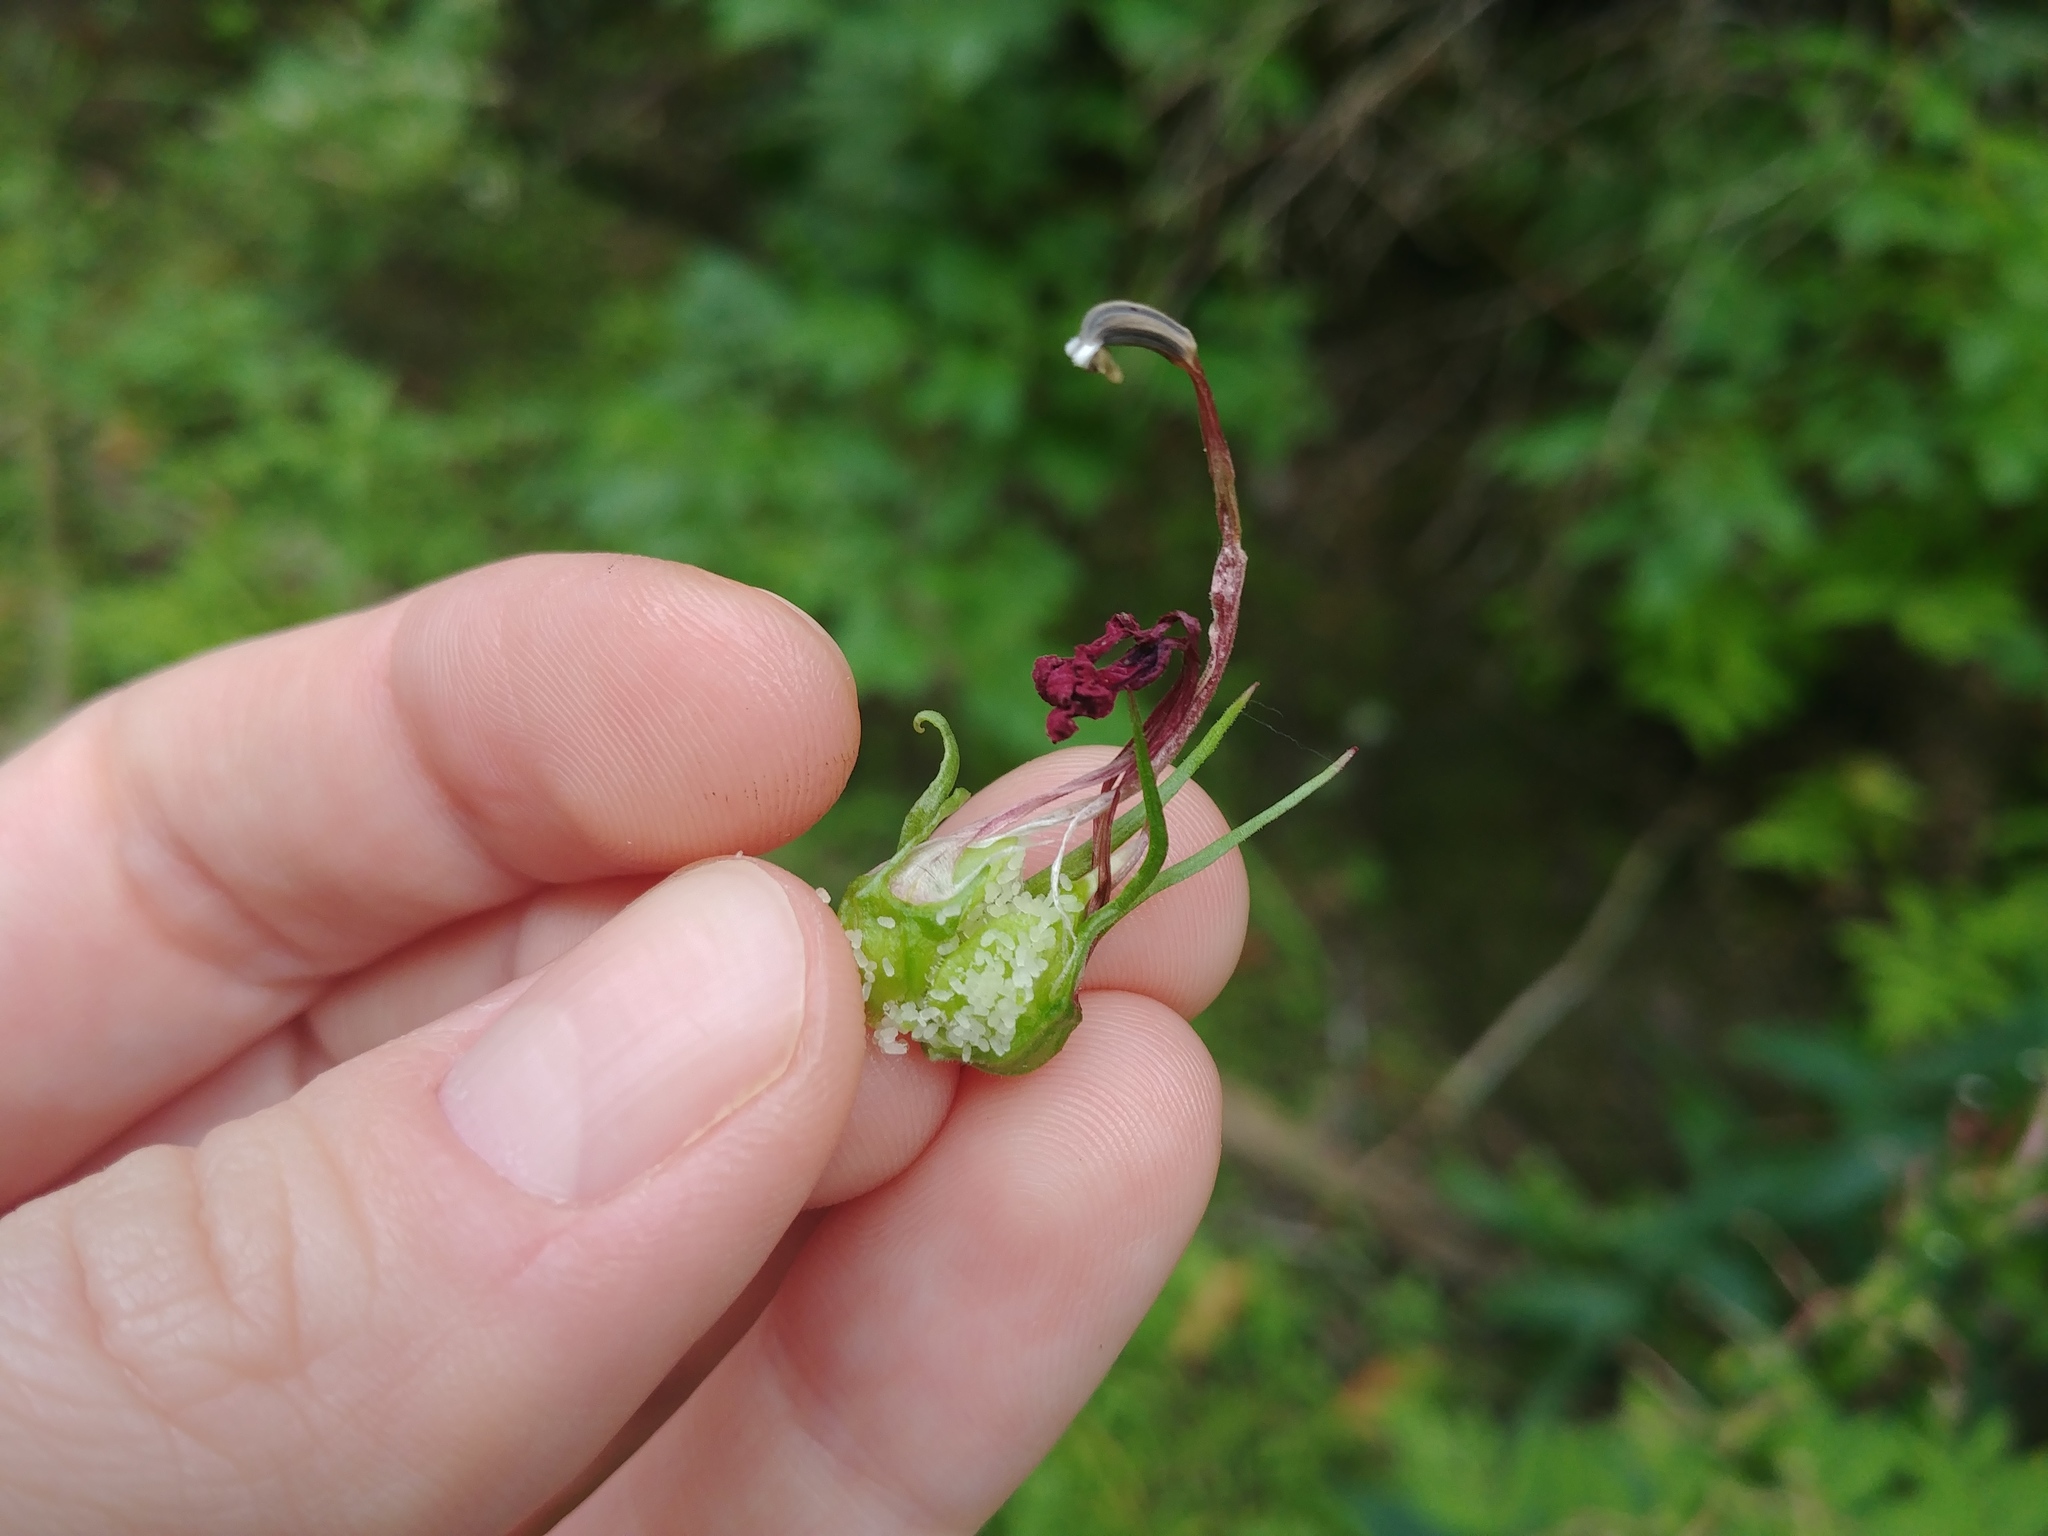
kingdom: Plantae
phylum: Tracheophyta
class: Magnoliopsida
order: Asterales
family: Campanulaceae
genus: Lobelia
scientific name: Lobelia cardinalis
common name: Cardinal flower
